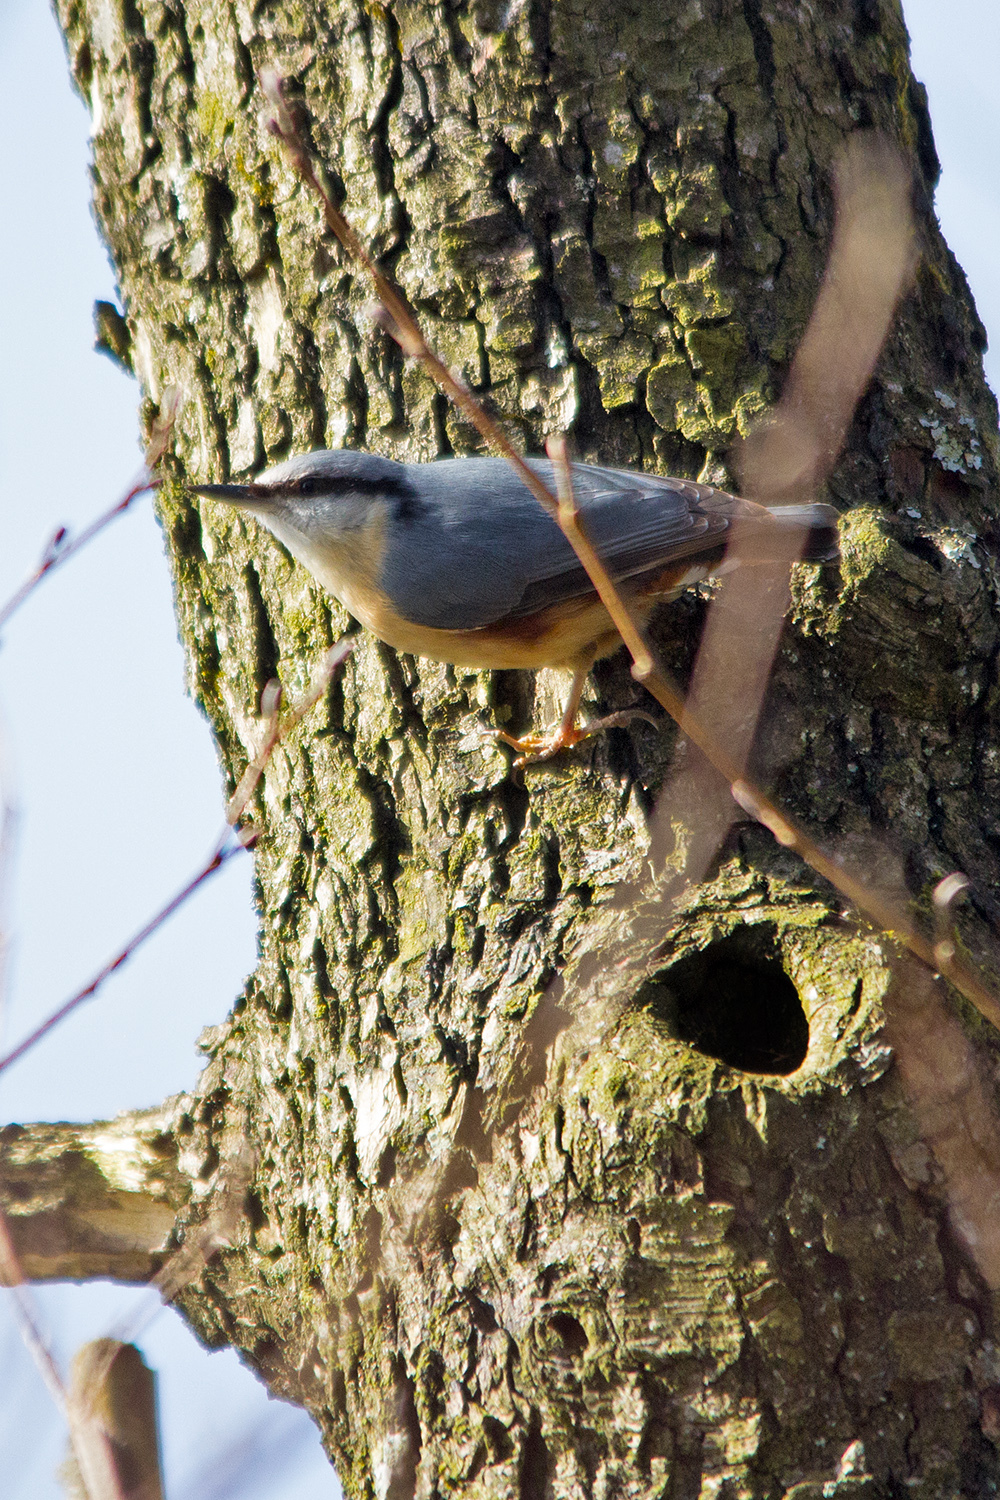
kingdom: Animalia
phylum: Chordata
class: Aves
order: Passeriformes
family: Sittidae
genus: Sitta
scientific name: Sitta europaea
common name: Eurasian nuthatch
